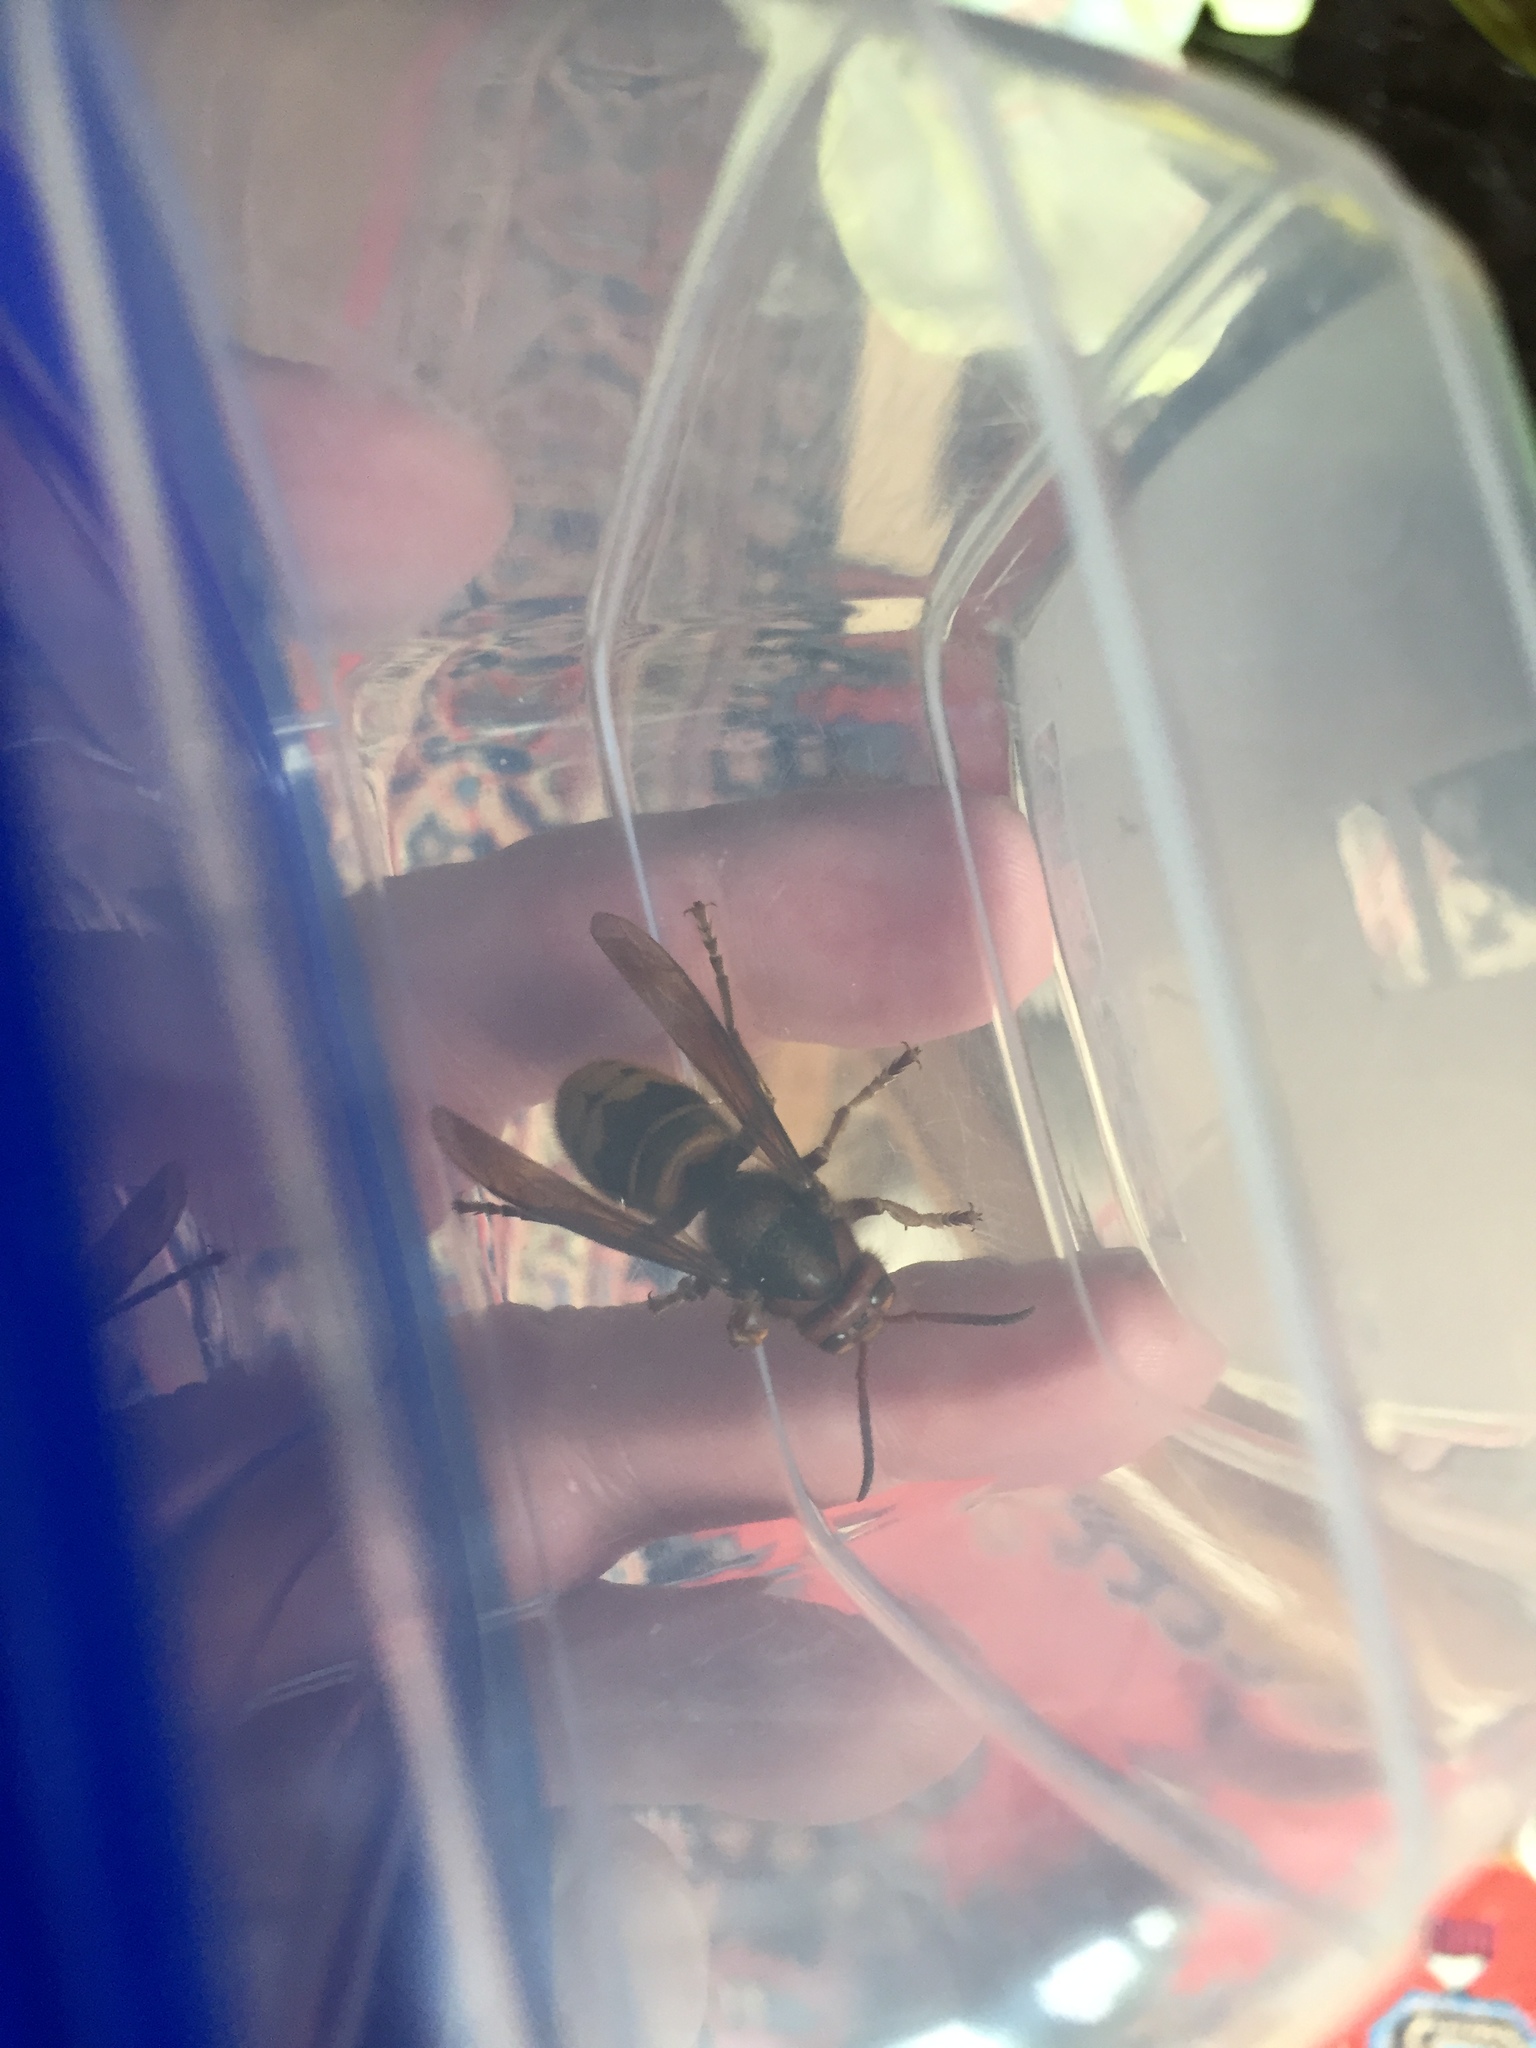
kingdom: Animalia
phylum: Arthropoda
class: Insecta
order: Hymenoptera
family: Vespidae
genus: Vespa
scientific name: Vespa crabro
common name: Hornet
